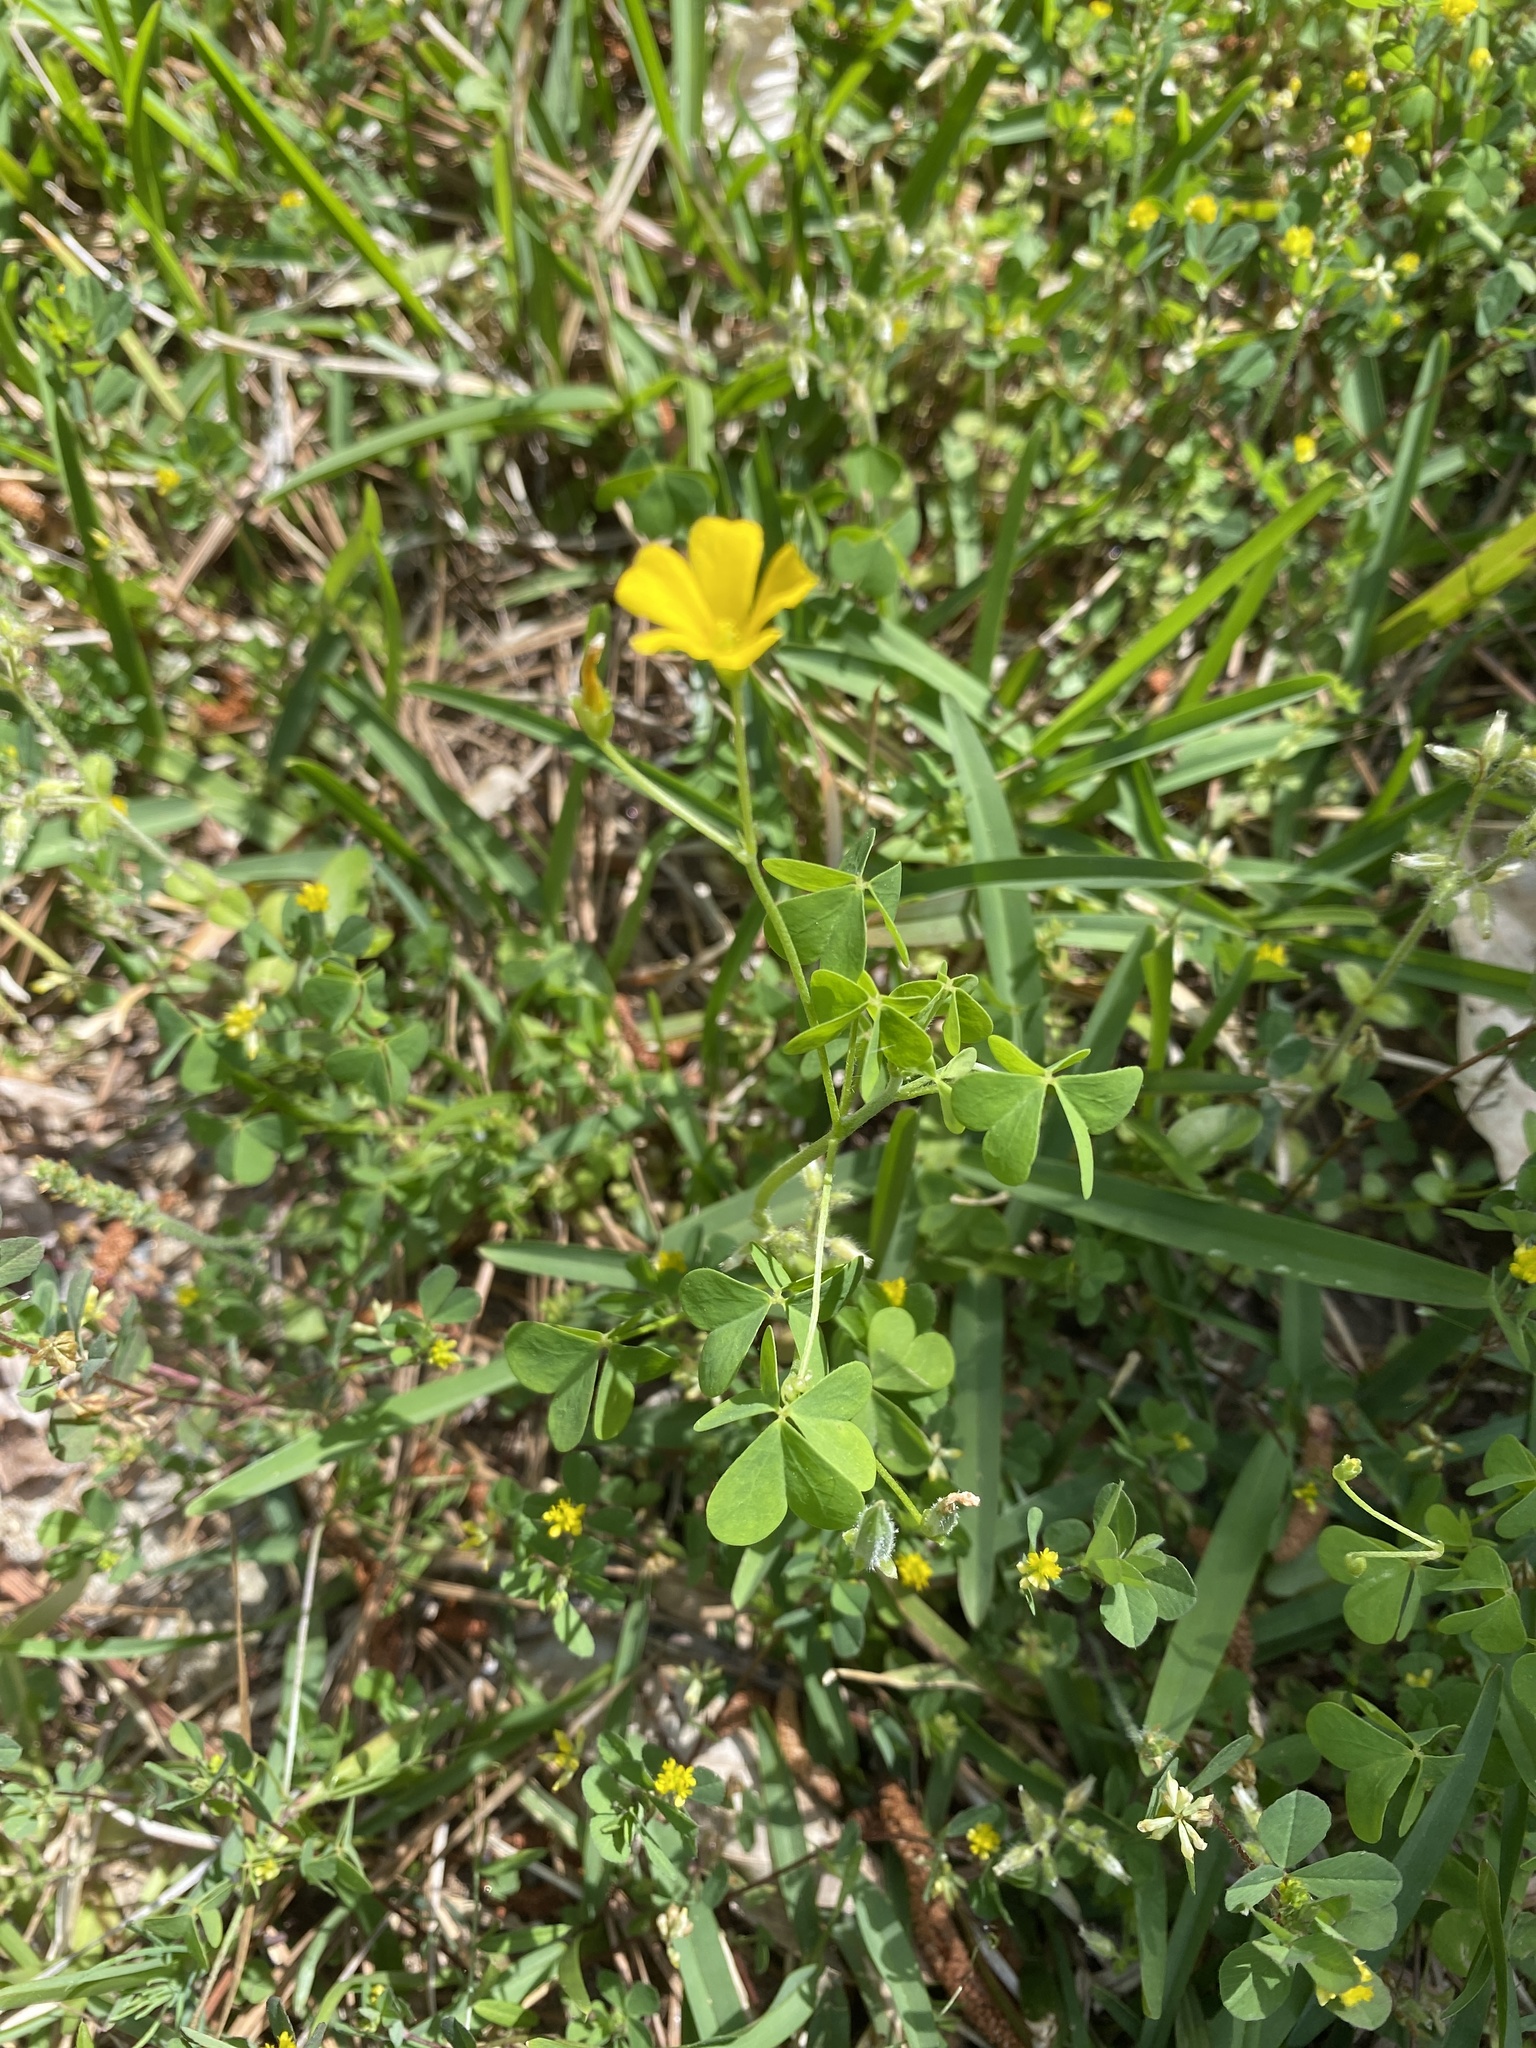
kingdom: Plantae
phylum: Tracheophyta
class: Magnoliopsida
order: Oxalidales
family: Oxalidaceae
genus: Oxalis
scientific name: Oxalis dillenii
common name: Sussex yellow-sorrel
